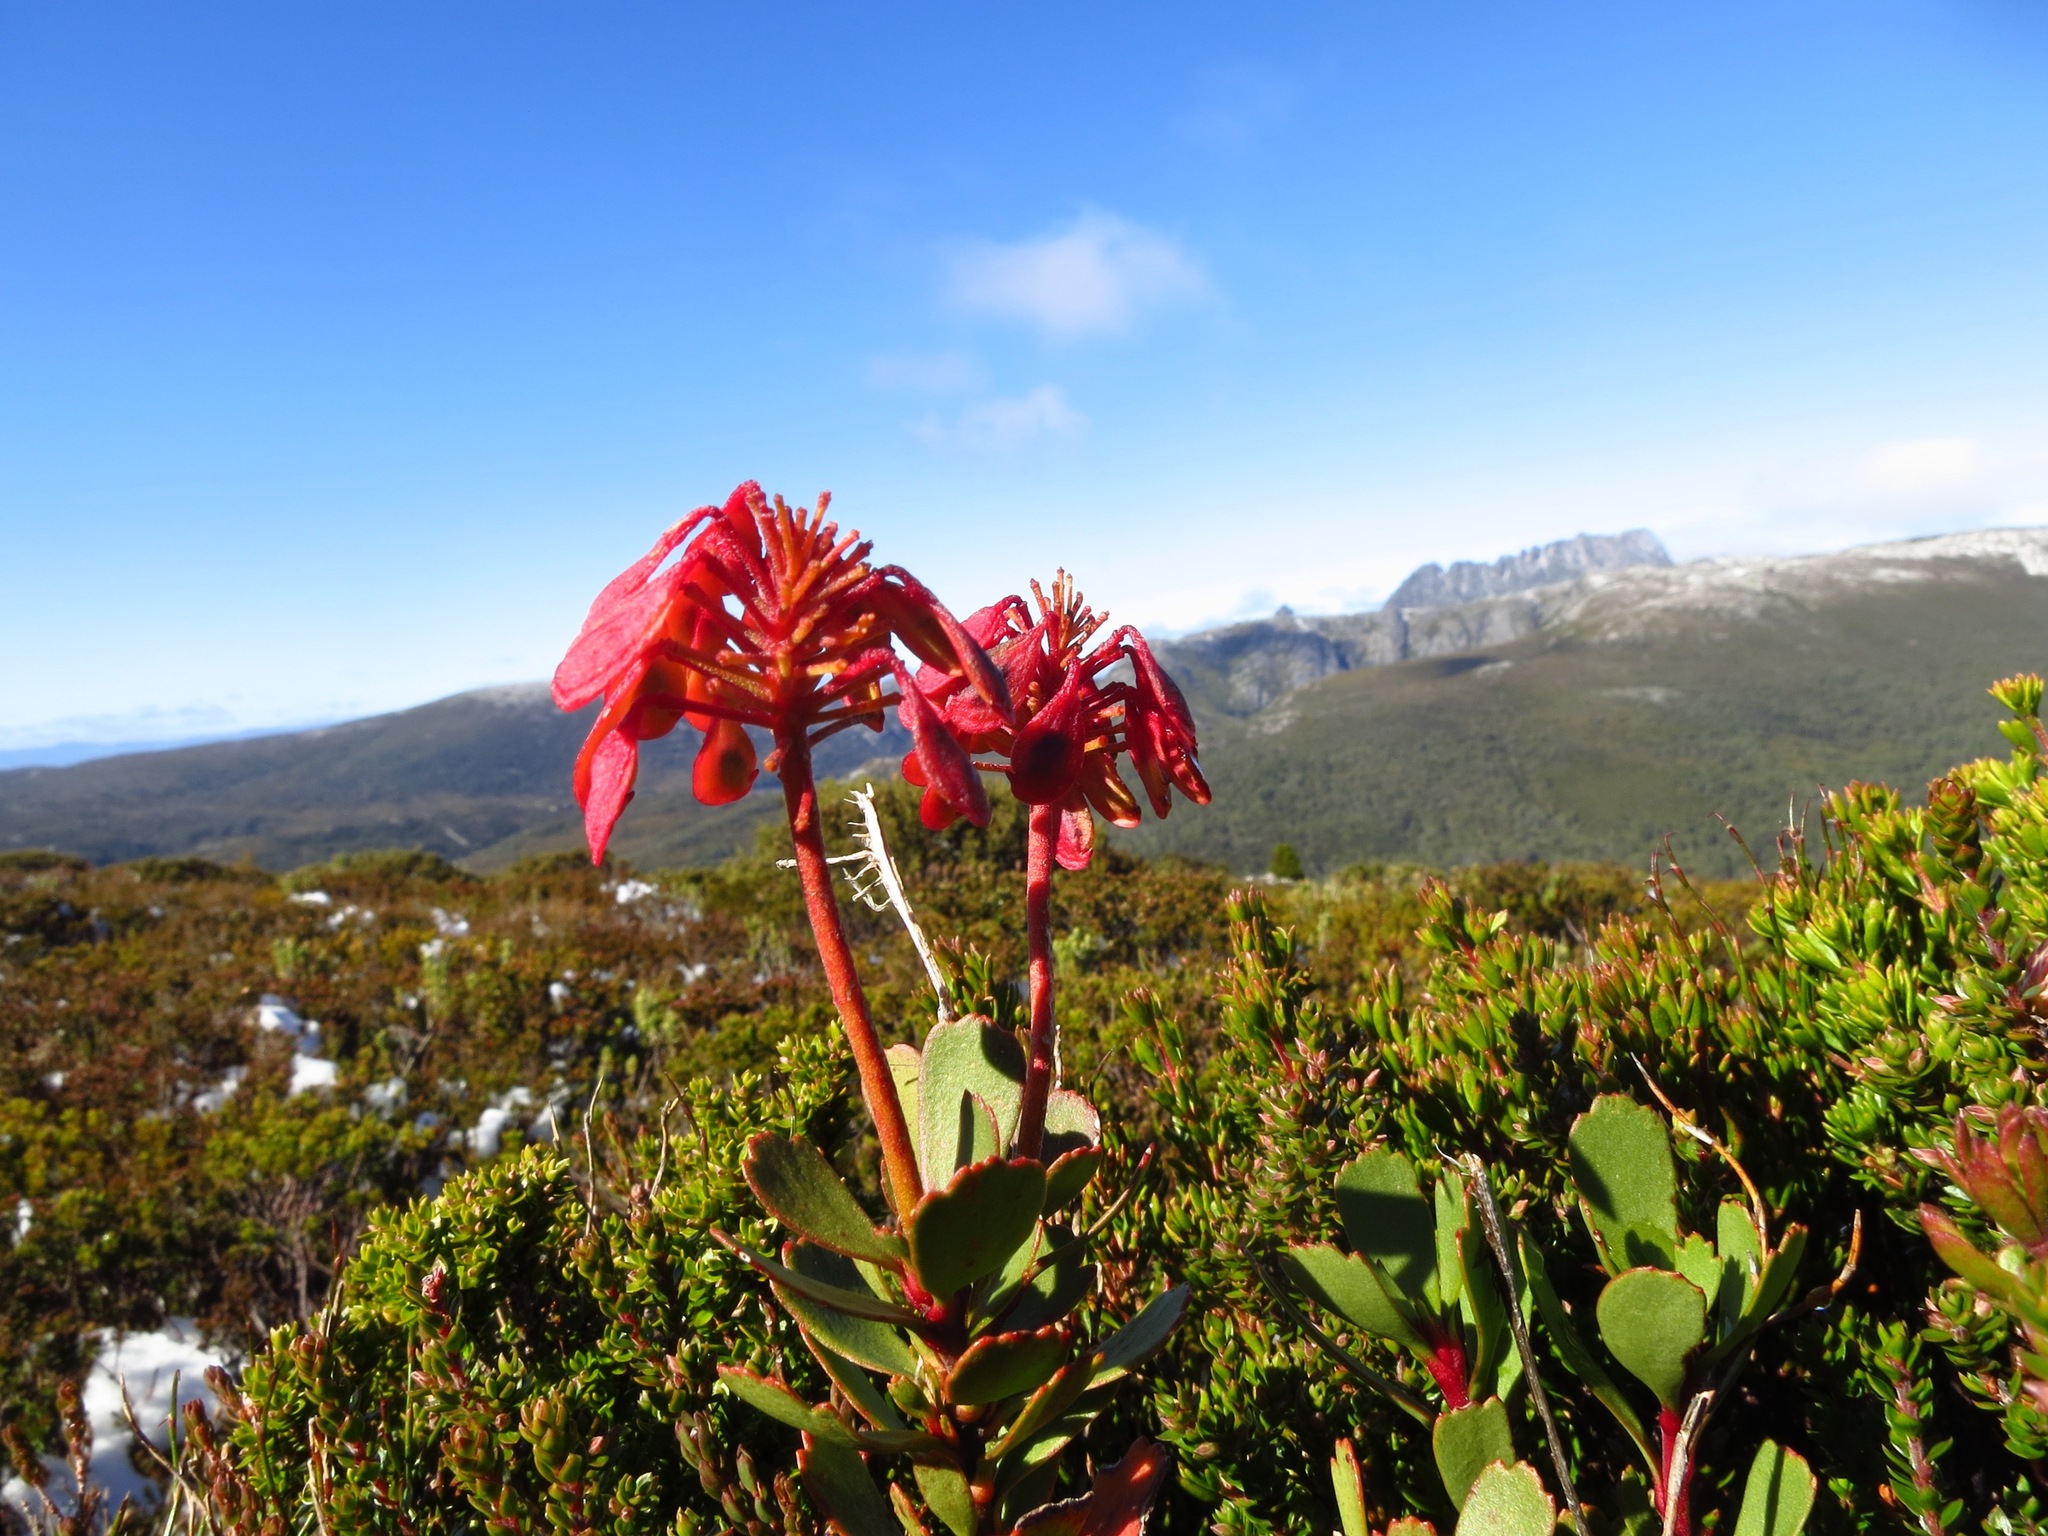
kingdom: Plantae
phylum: Tracheophyta
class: Magnoliopsida
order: Proteales
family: Proteaceae
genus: Bellendena
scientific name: Bellendena montana
